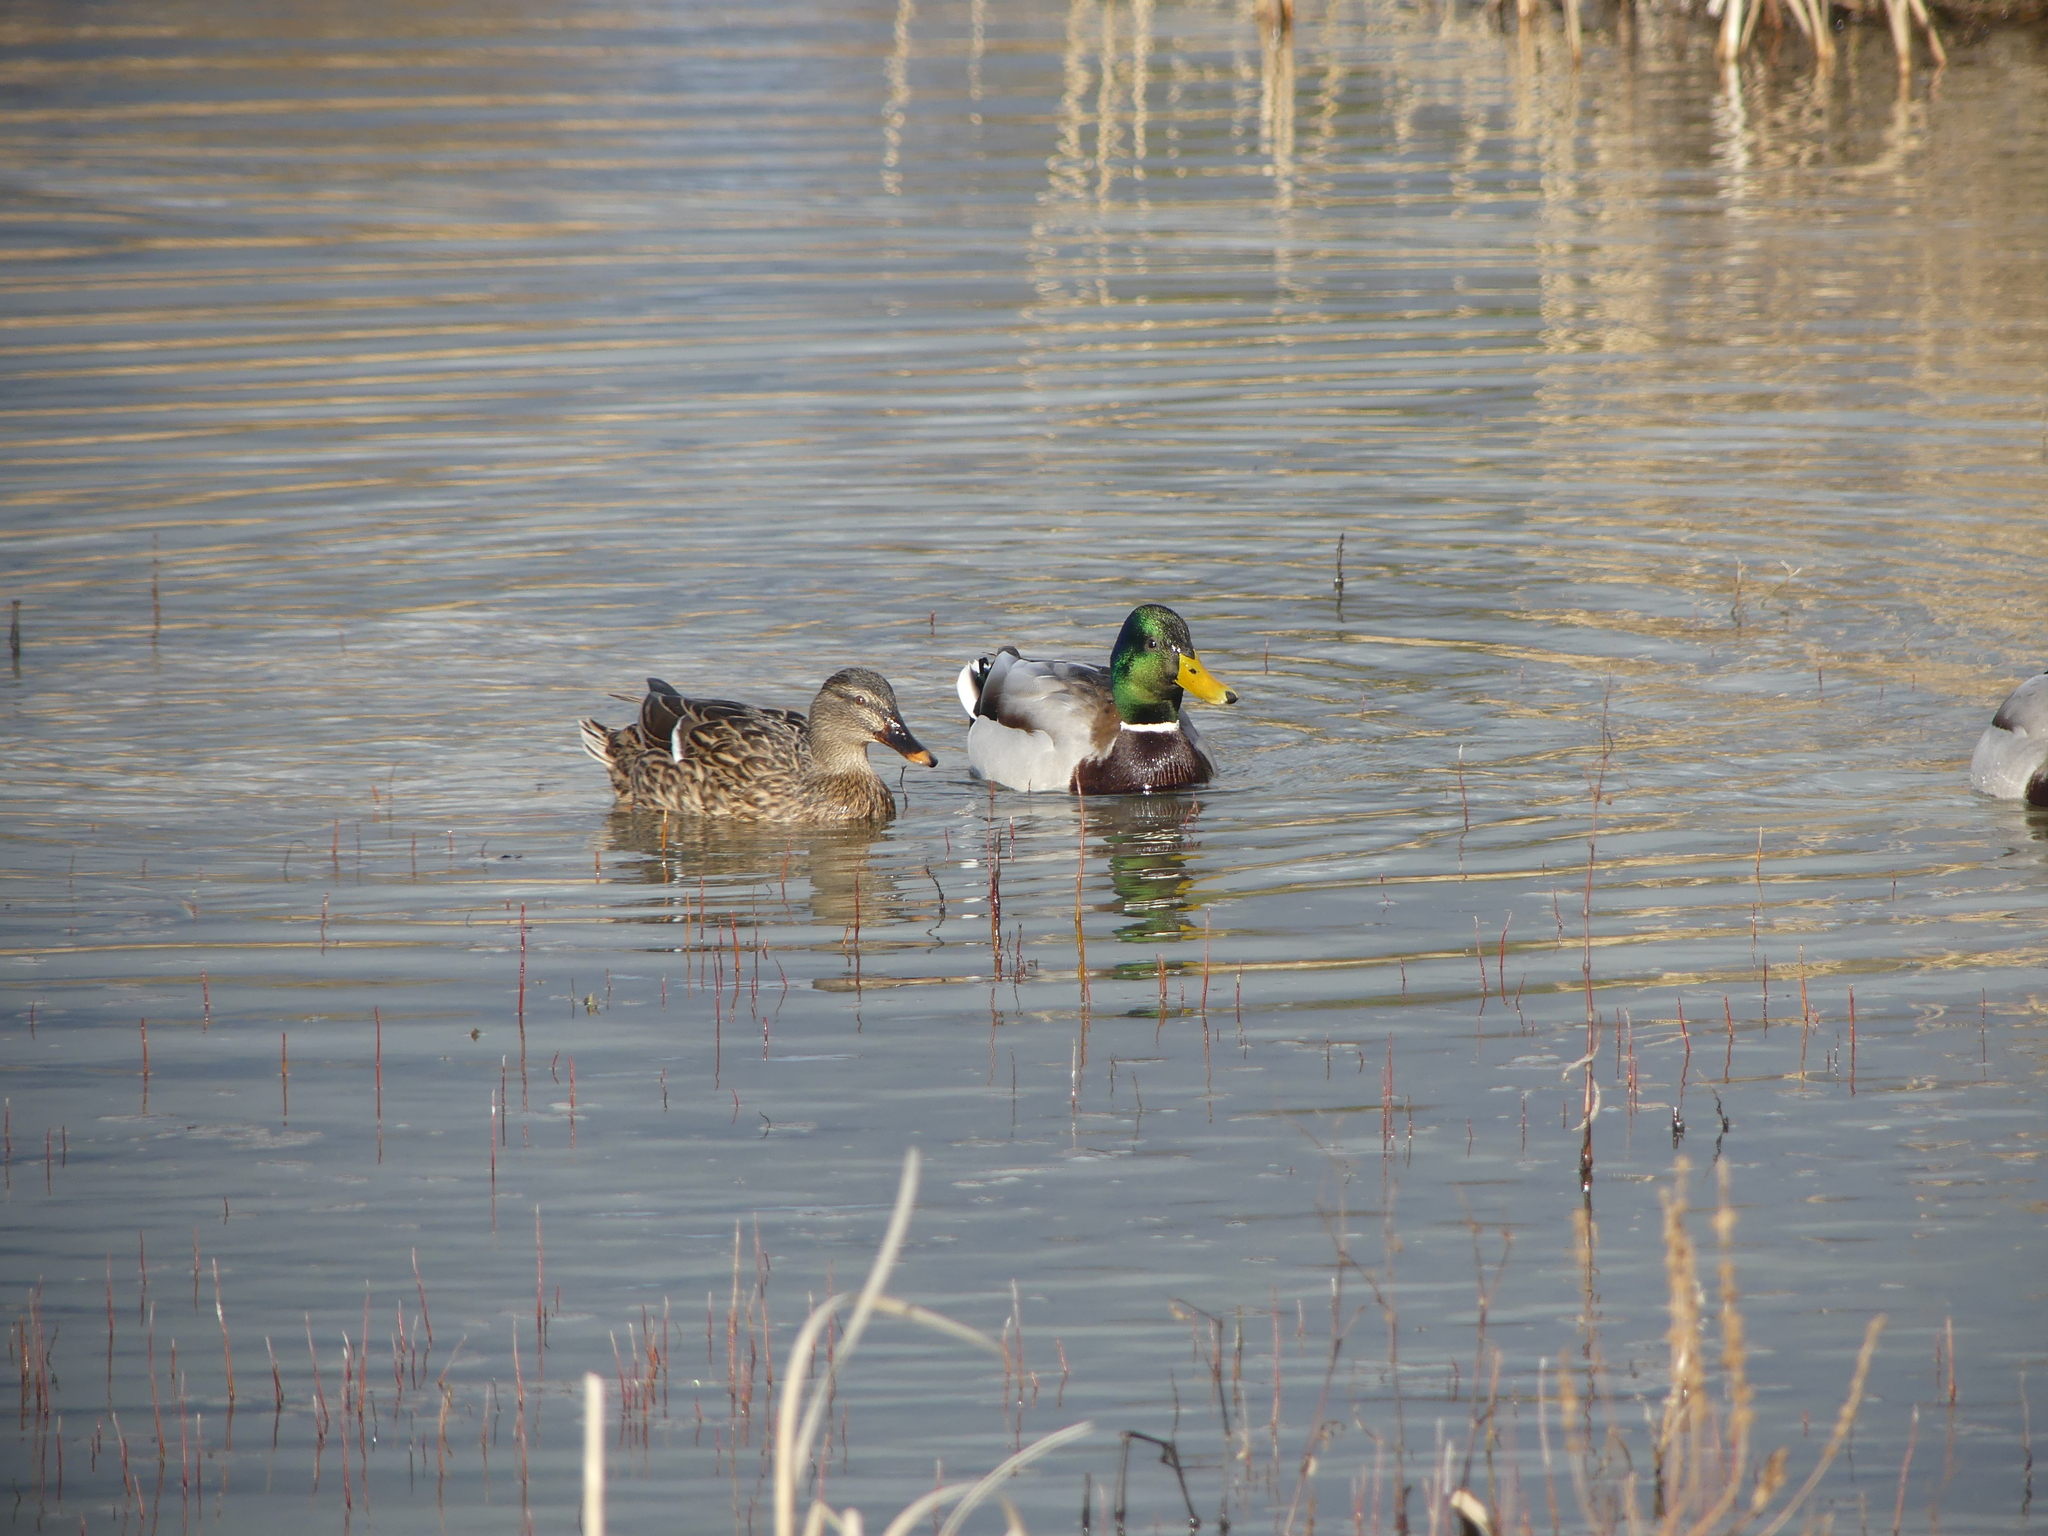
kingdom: Animalia
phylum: Chordata
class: Aves
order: Anseriformes
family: Anatidae
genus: Anas
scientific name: Anas platyrhynchos
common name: Mallard
